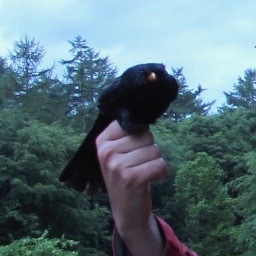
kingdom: Animalia
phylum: Chordata
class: Aves
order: Passeriformes
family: Turdidae
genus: Turdus
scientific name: Turdus merula
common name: Common blackbird
